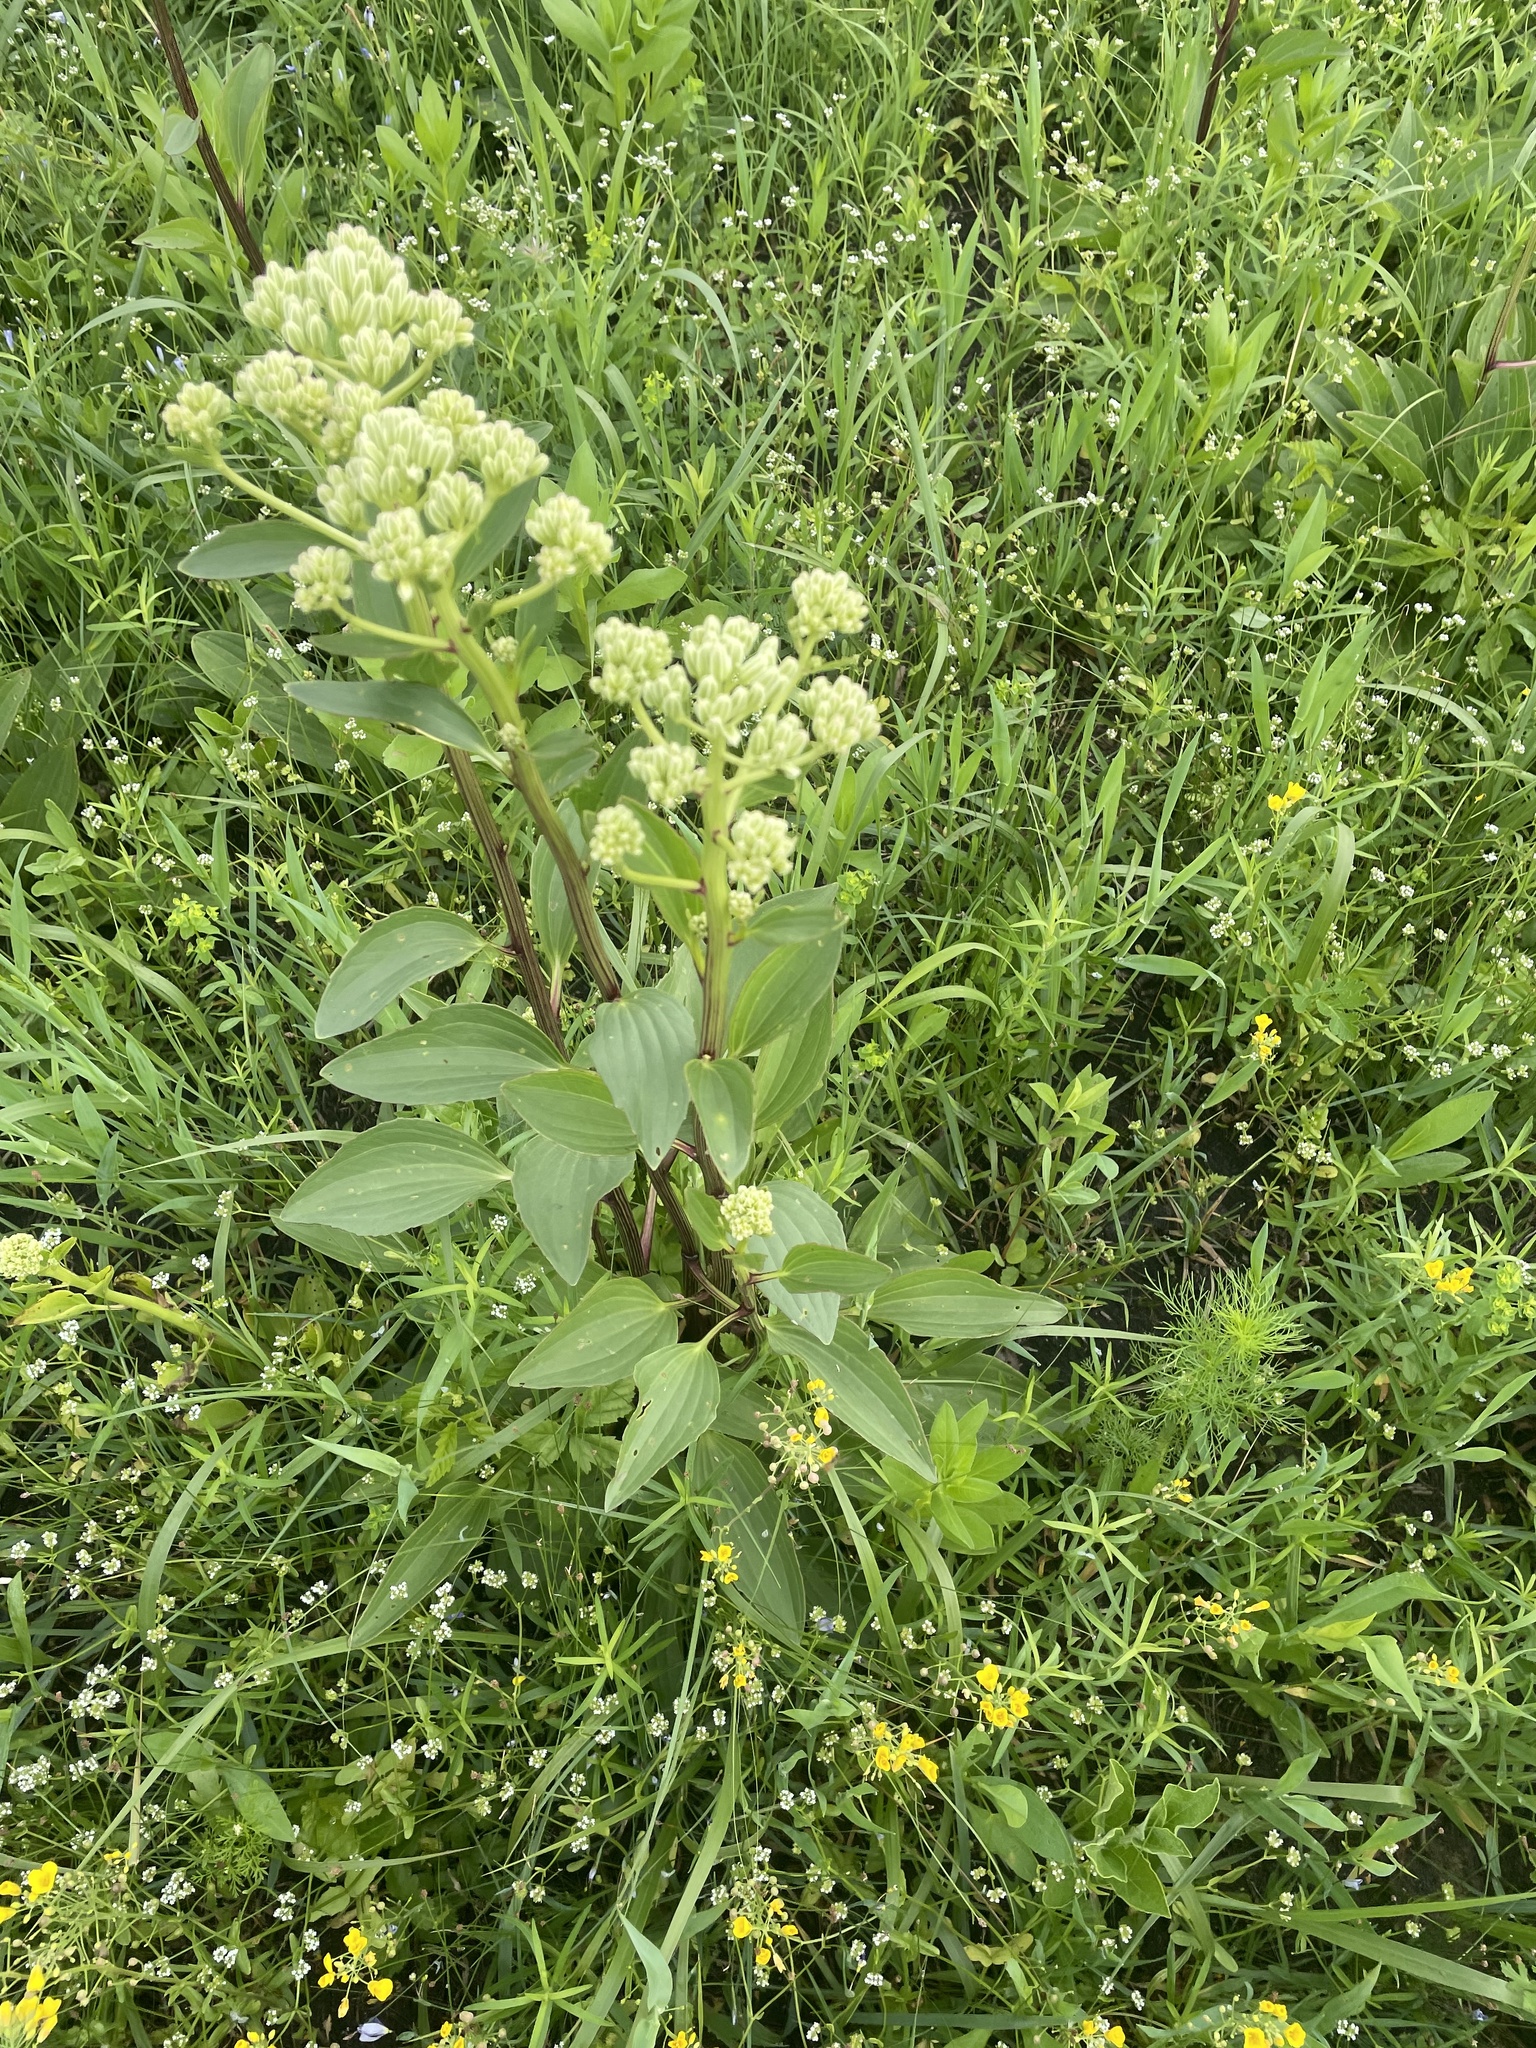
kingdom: Plantae
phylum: Tracheophyta
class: Magnoliopsida
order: Asterales
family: Asteraceae
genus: Arnoglossum
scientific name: Arnoglossum plantagineum
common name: Groove-stemmed indian-plantain
